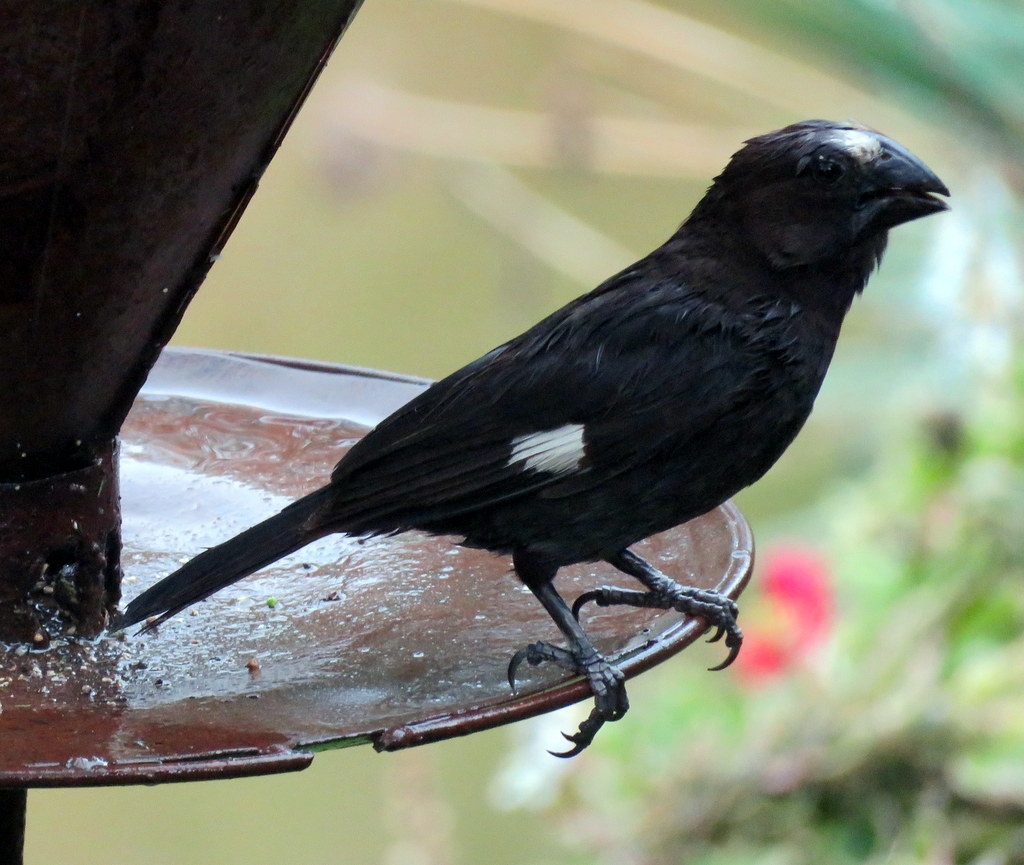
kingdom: Animalia
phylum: Chordata
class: Aves
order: Passeriformes
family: Ploceidae
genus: Amblyospiza
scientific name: Amblyospiza albifrons
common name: Thick-billed weaver
